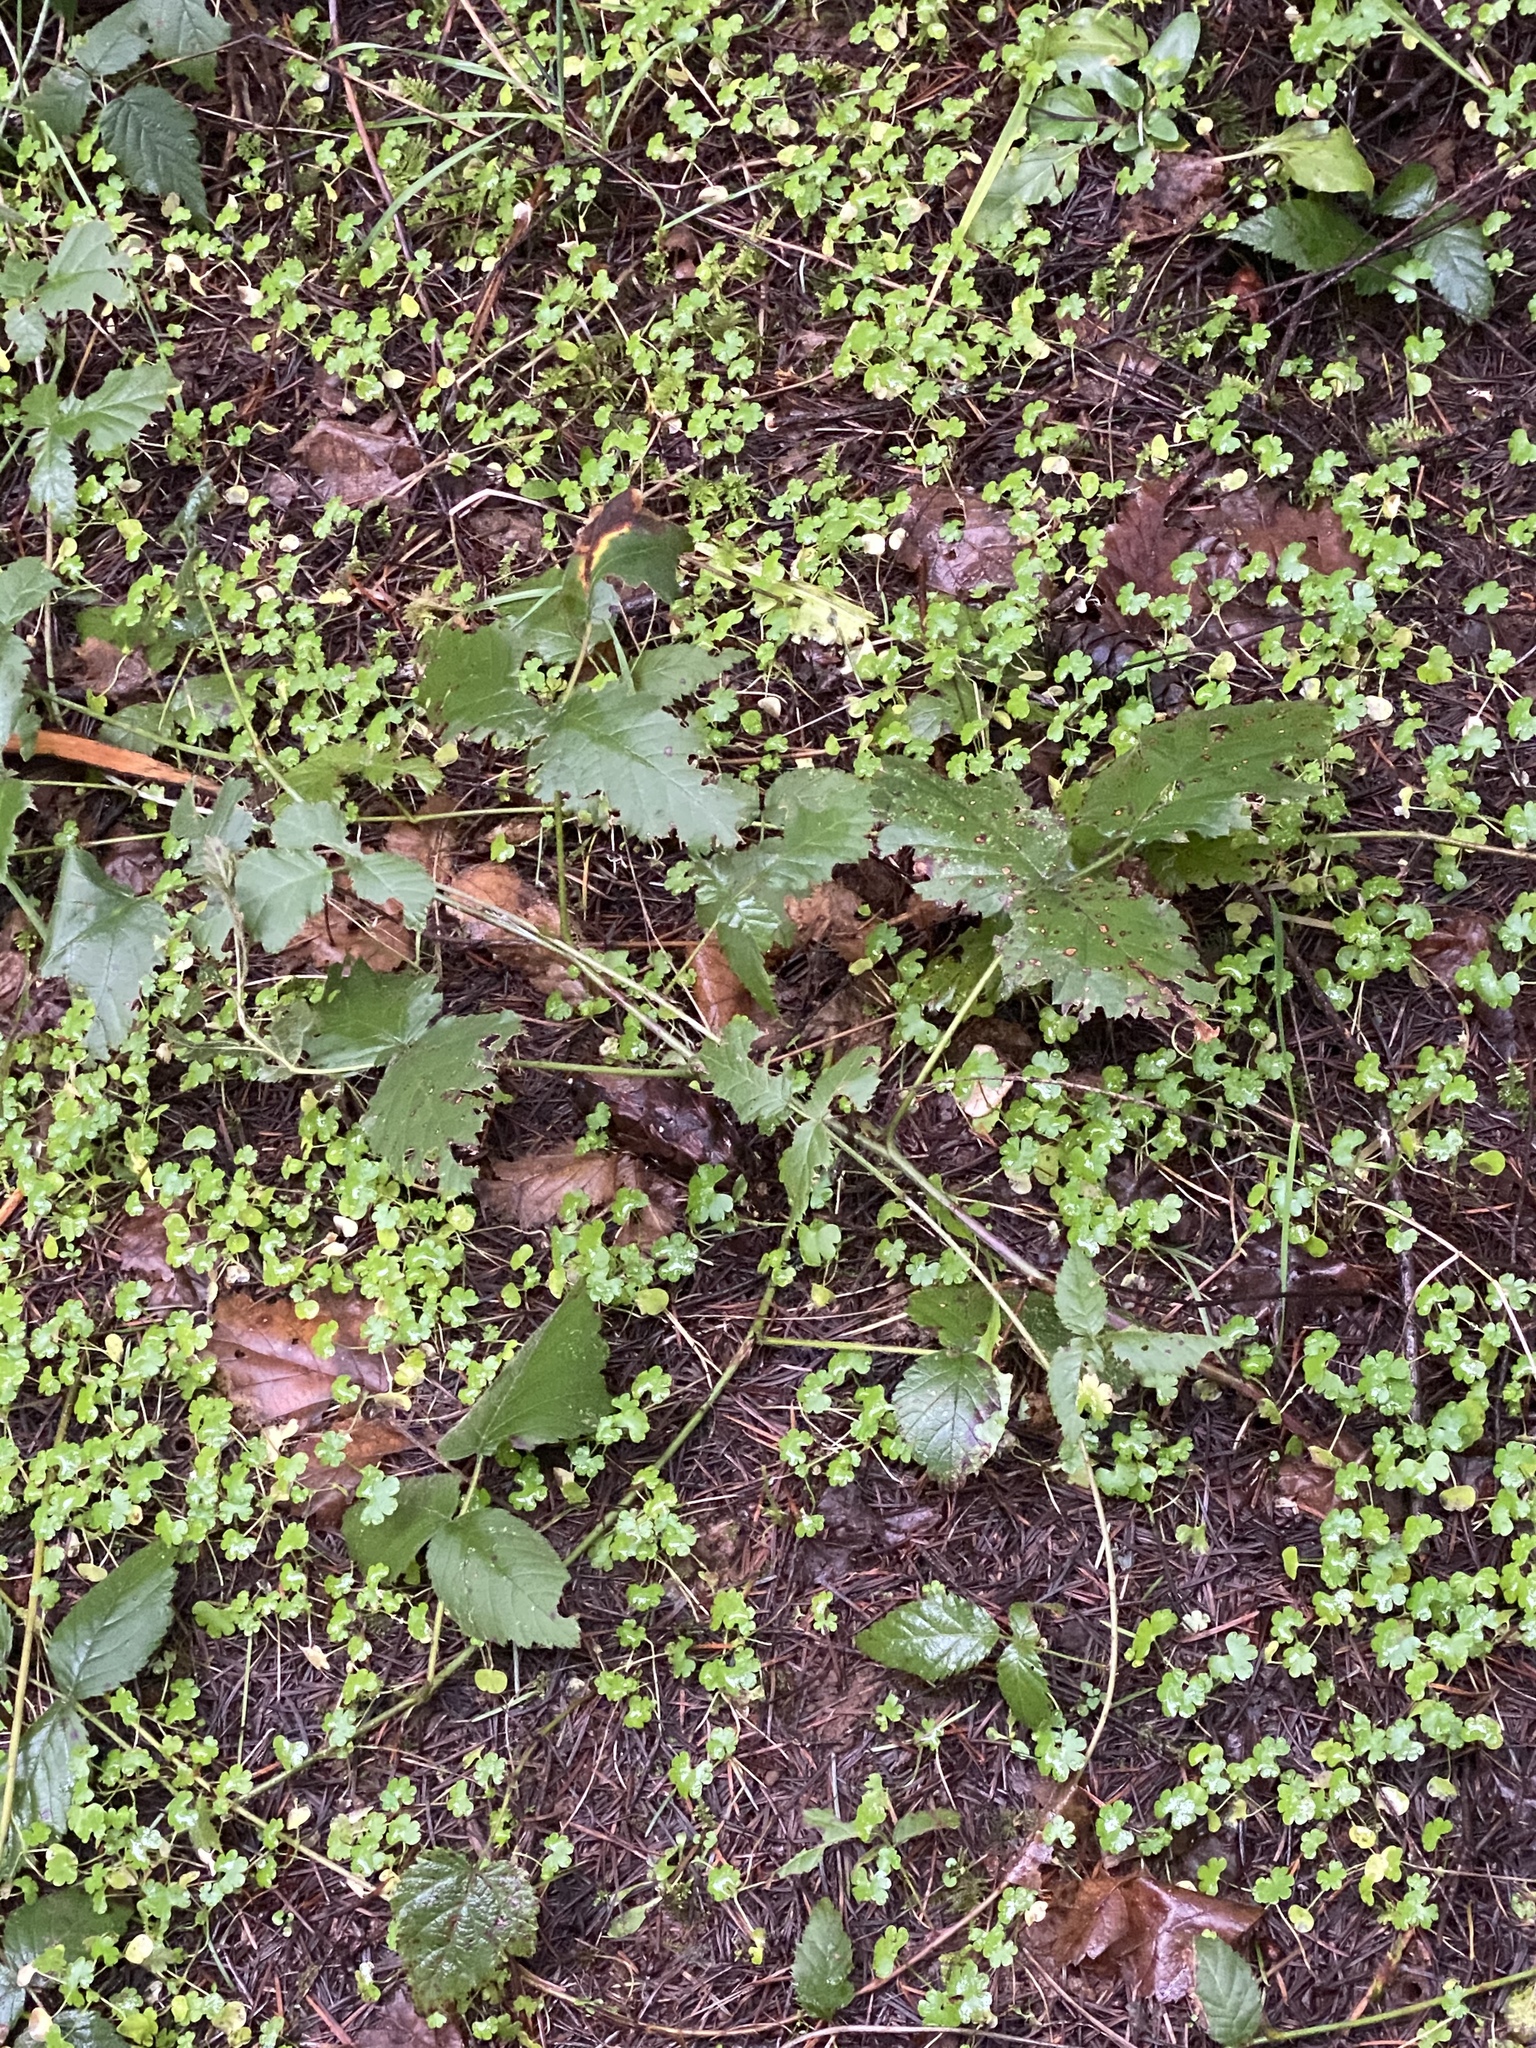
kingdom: Plantae
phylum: Tracheophyta
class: Magnoliopsida
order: Rosales
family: Rosaceae
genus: Rubus
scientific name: Rubus ursinus
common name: Pacific blackberry
